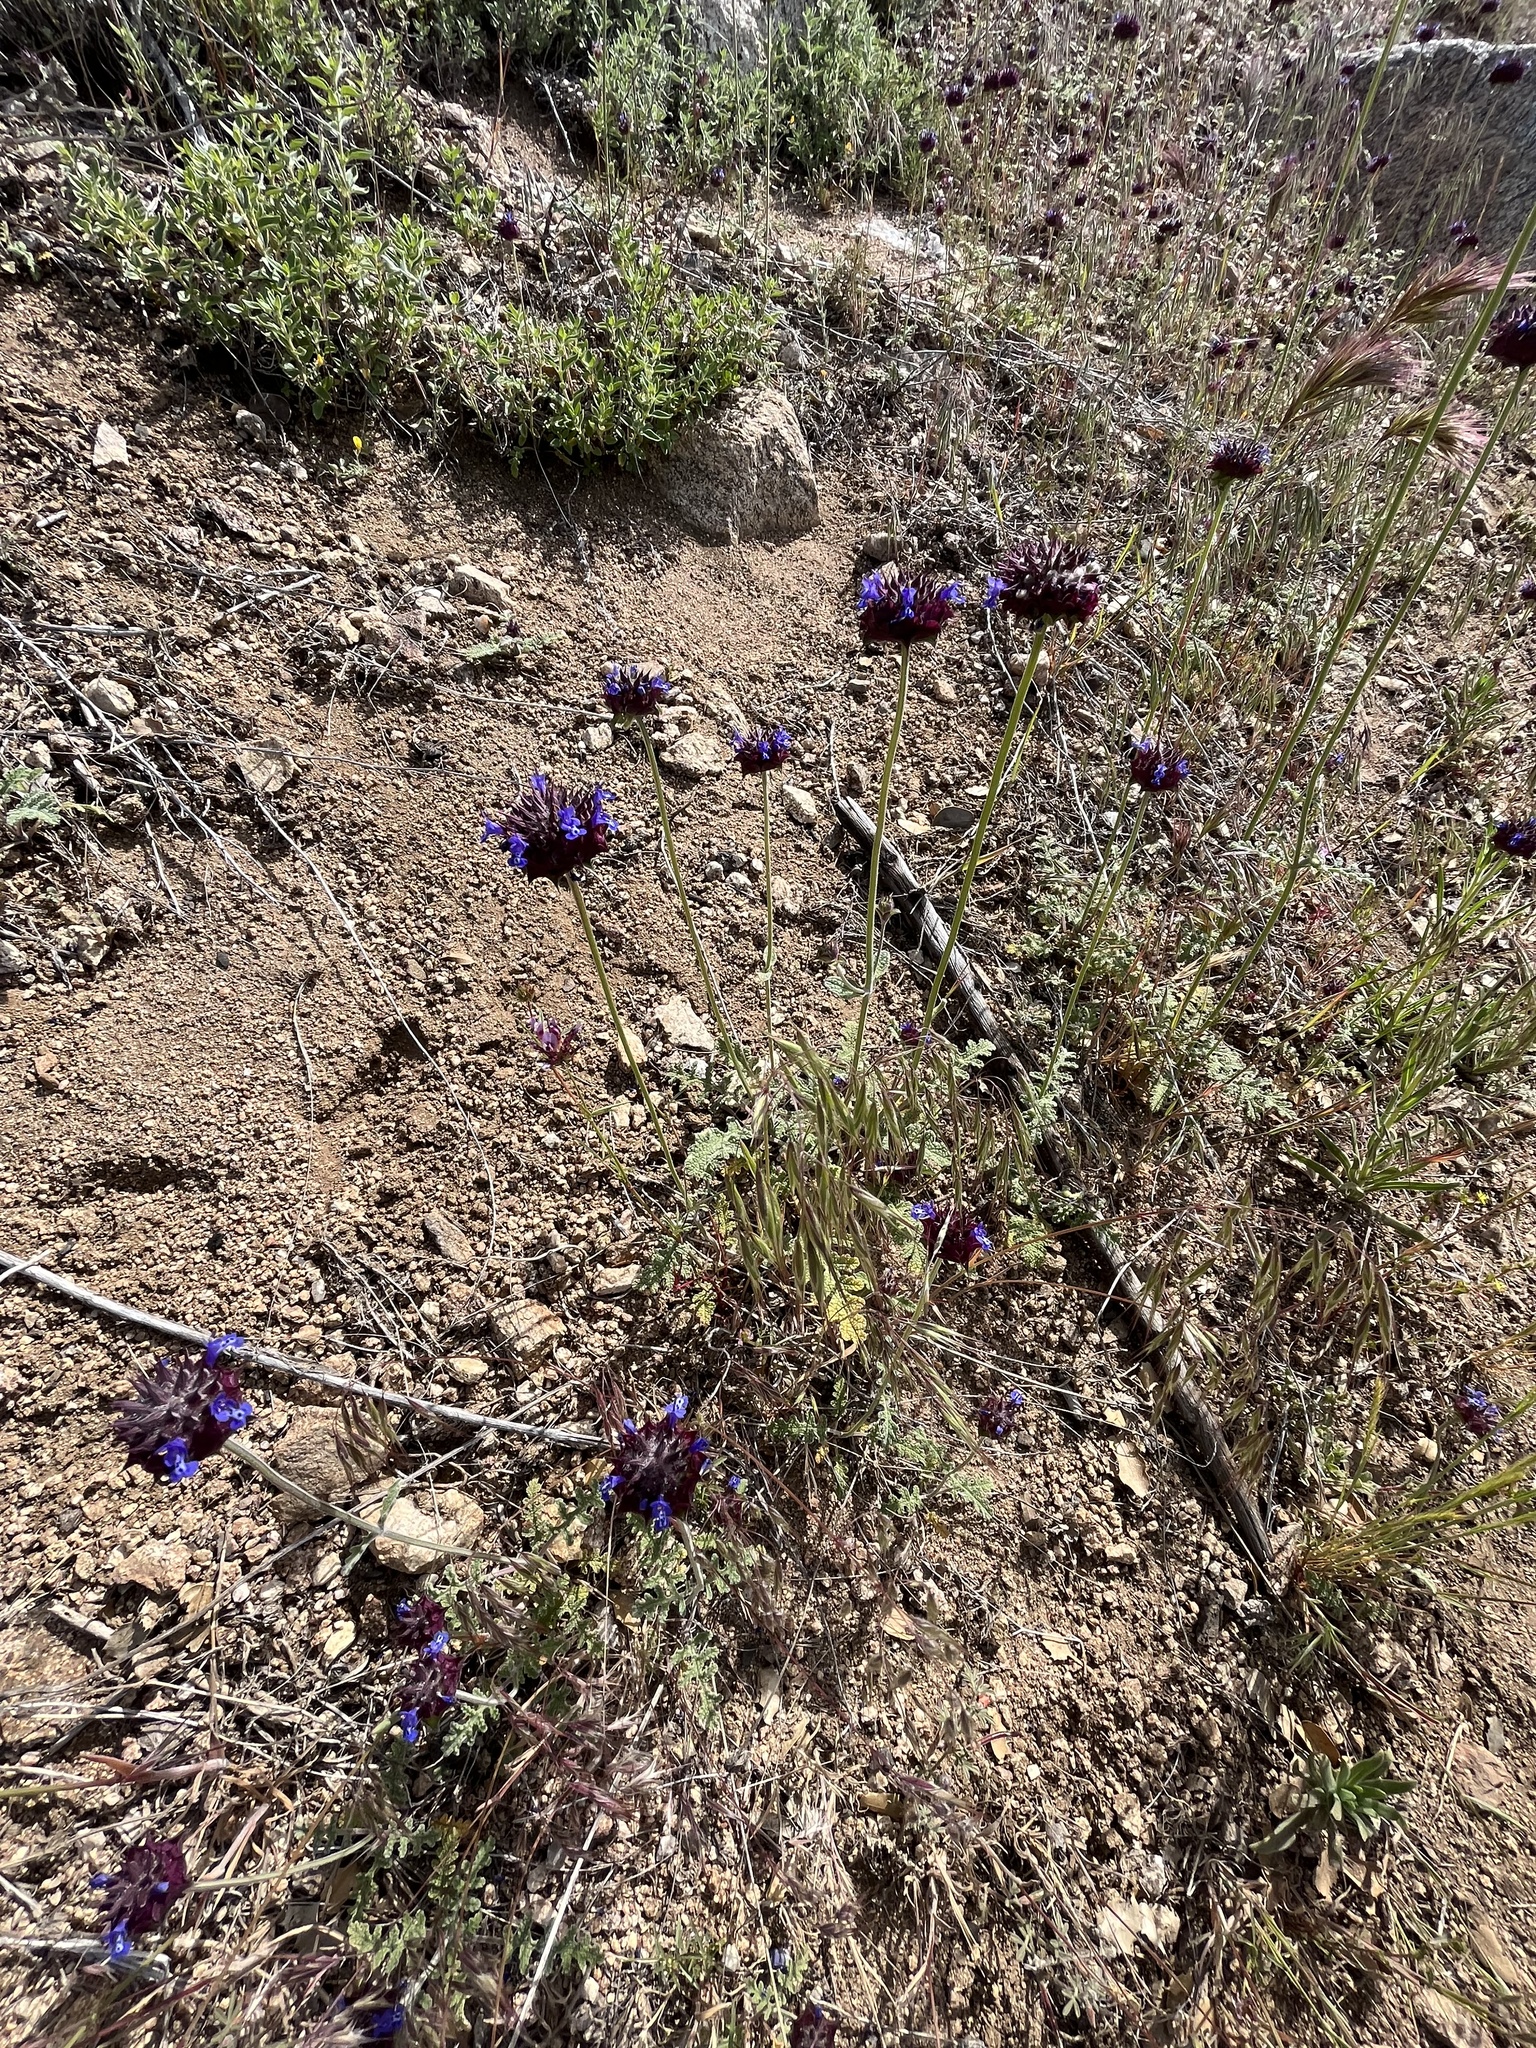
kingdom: Plantae
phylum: Tracheophyta
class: Magnoliopsida
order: Lamiales
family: Lamiaceae
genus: Salvia
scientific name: Salvia columbariae
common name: Chia
